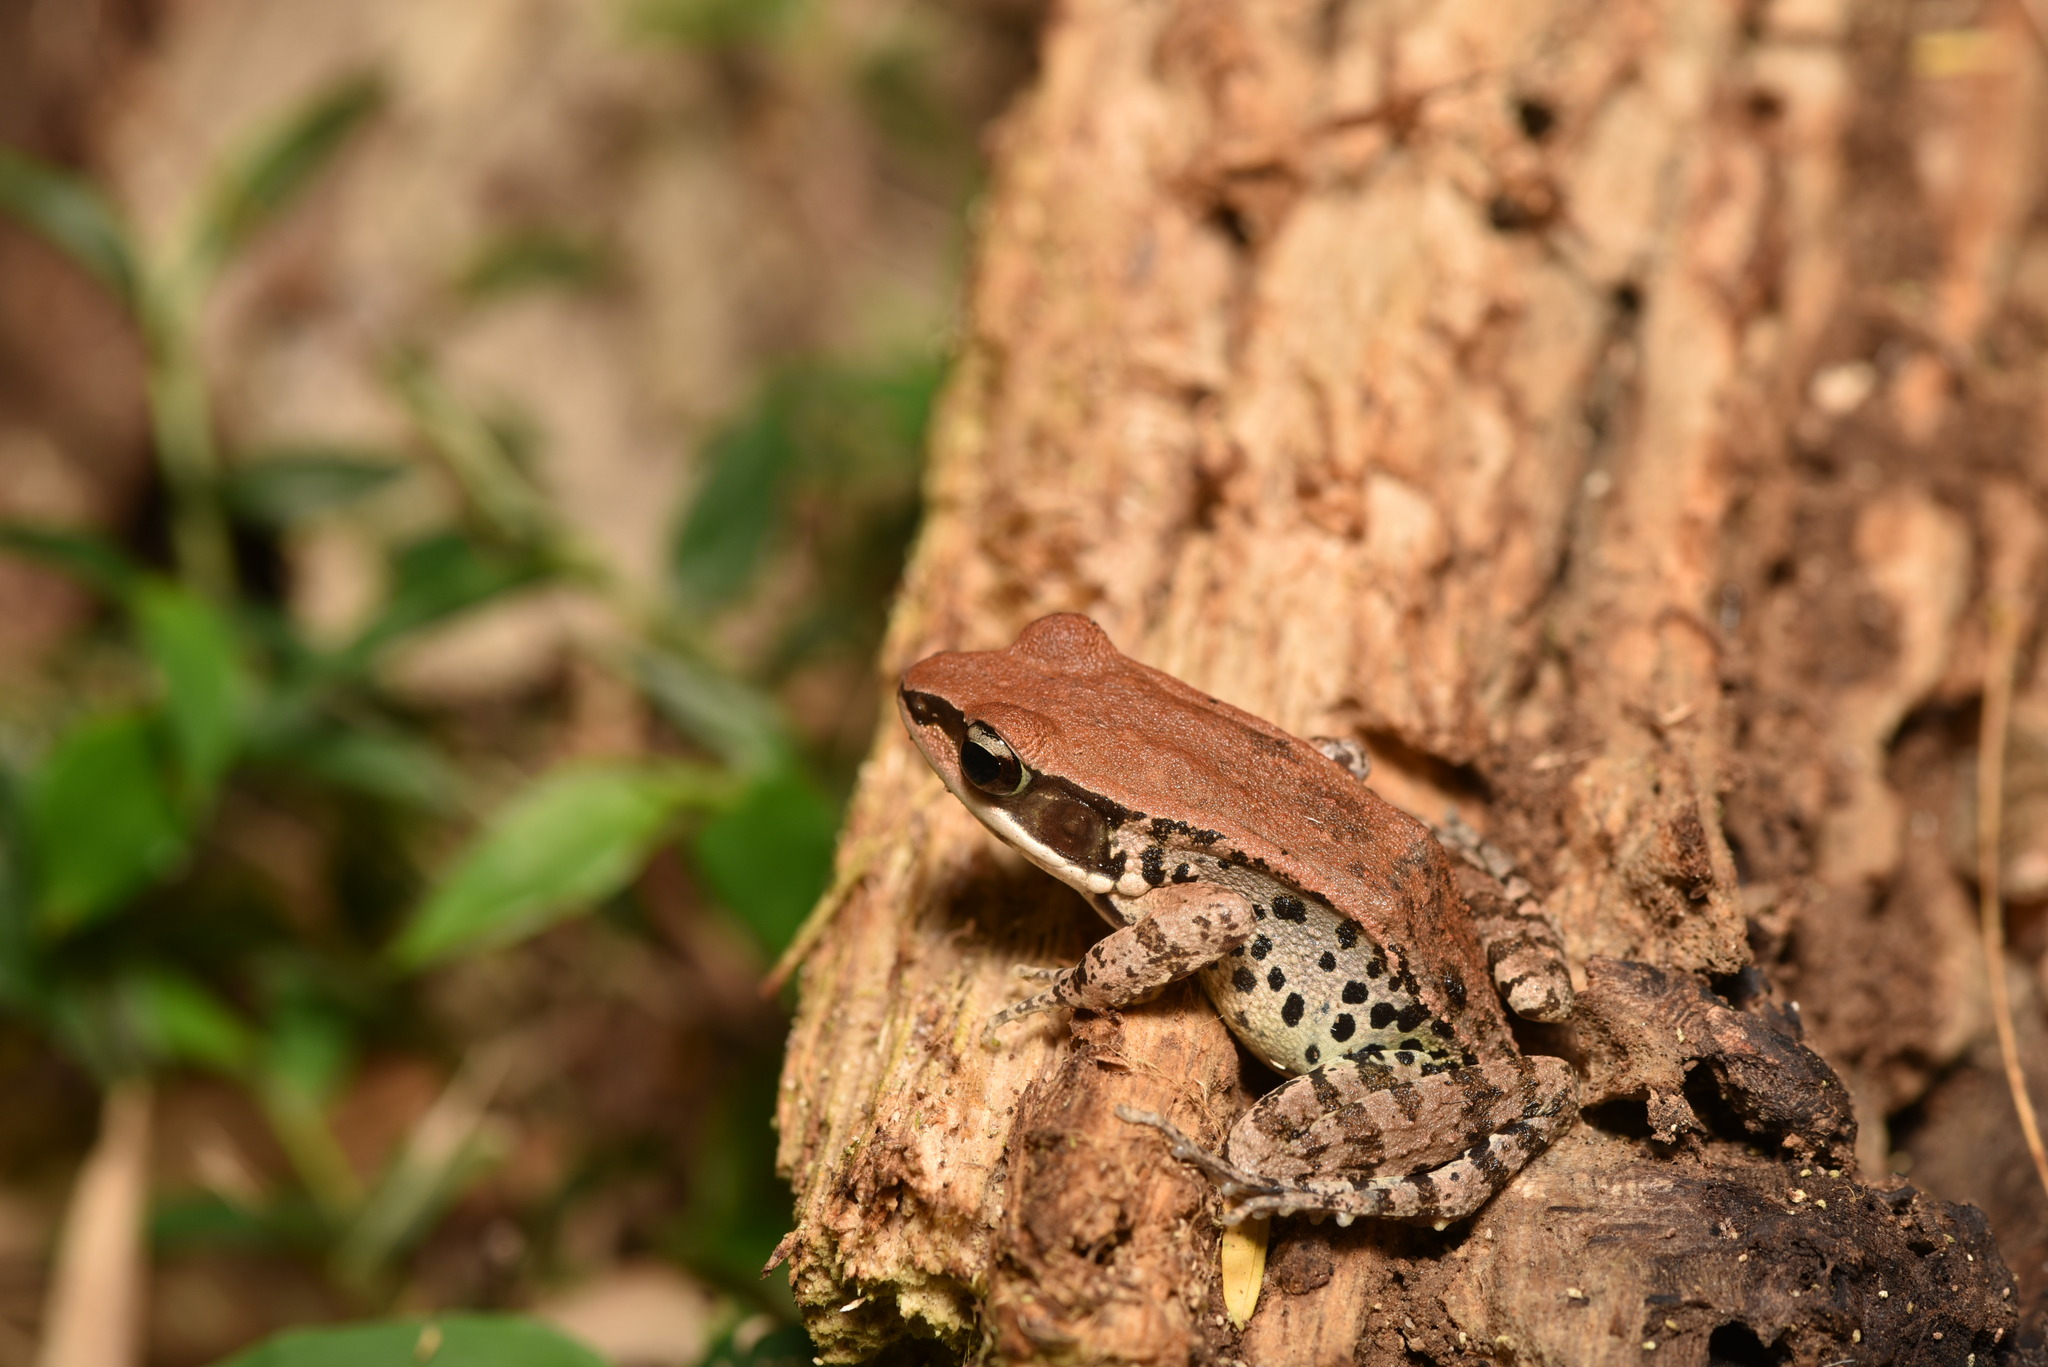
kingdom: Animalia
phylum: Chordata
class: Amphibia
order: Anura
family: Ranidae
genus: Hylarana
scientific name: Hylarana latouchii
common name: Broad-folded frog
